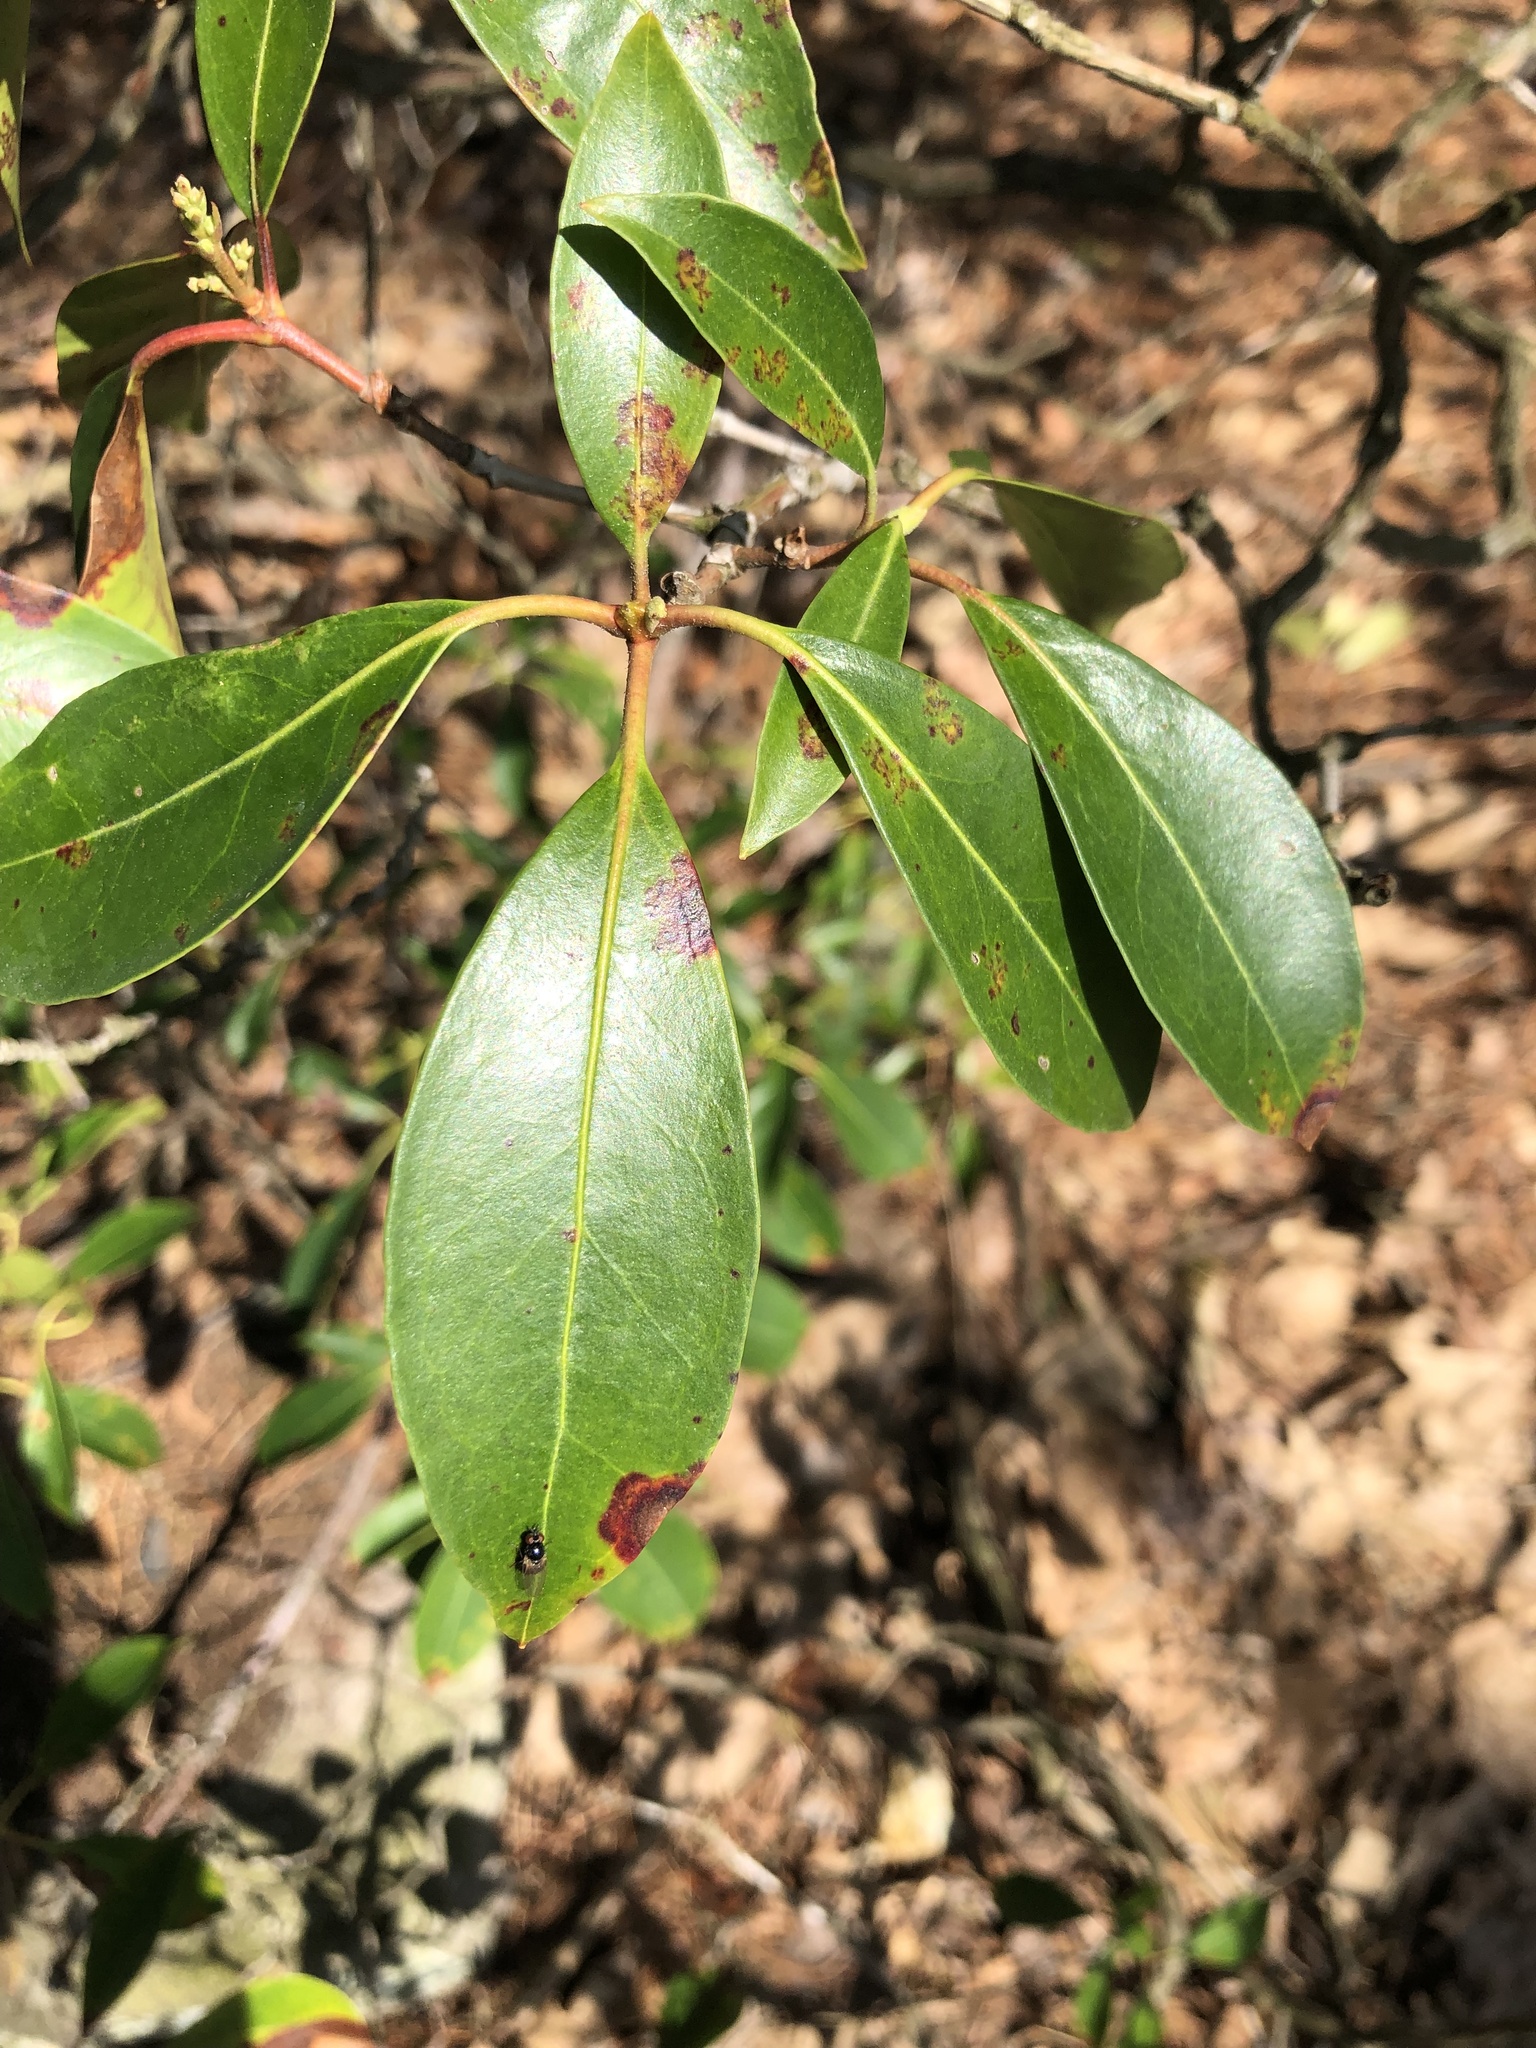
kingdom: Plantae
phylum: Tracheophyta
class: Magnoliopsida
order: Ericales
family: Ericaceae
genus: Kalmia
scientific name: Kalmia latifolia
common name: Mountain-laurel
